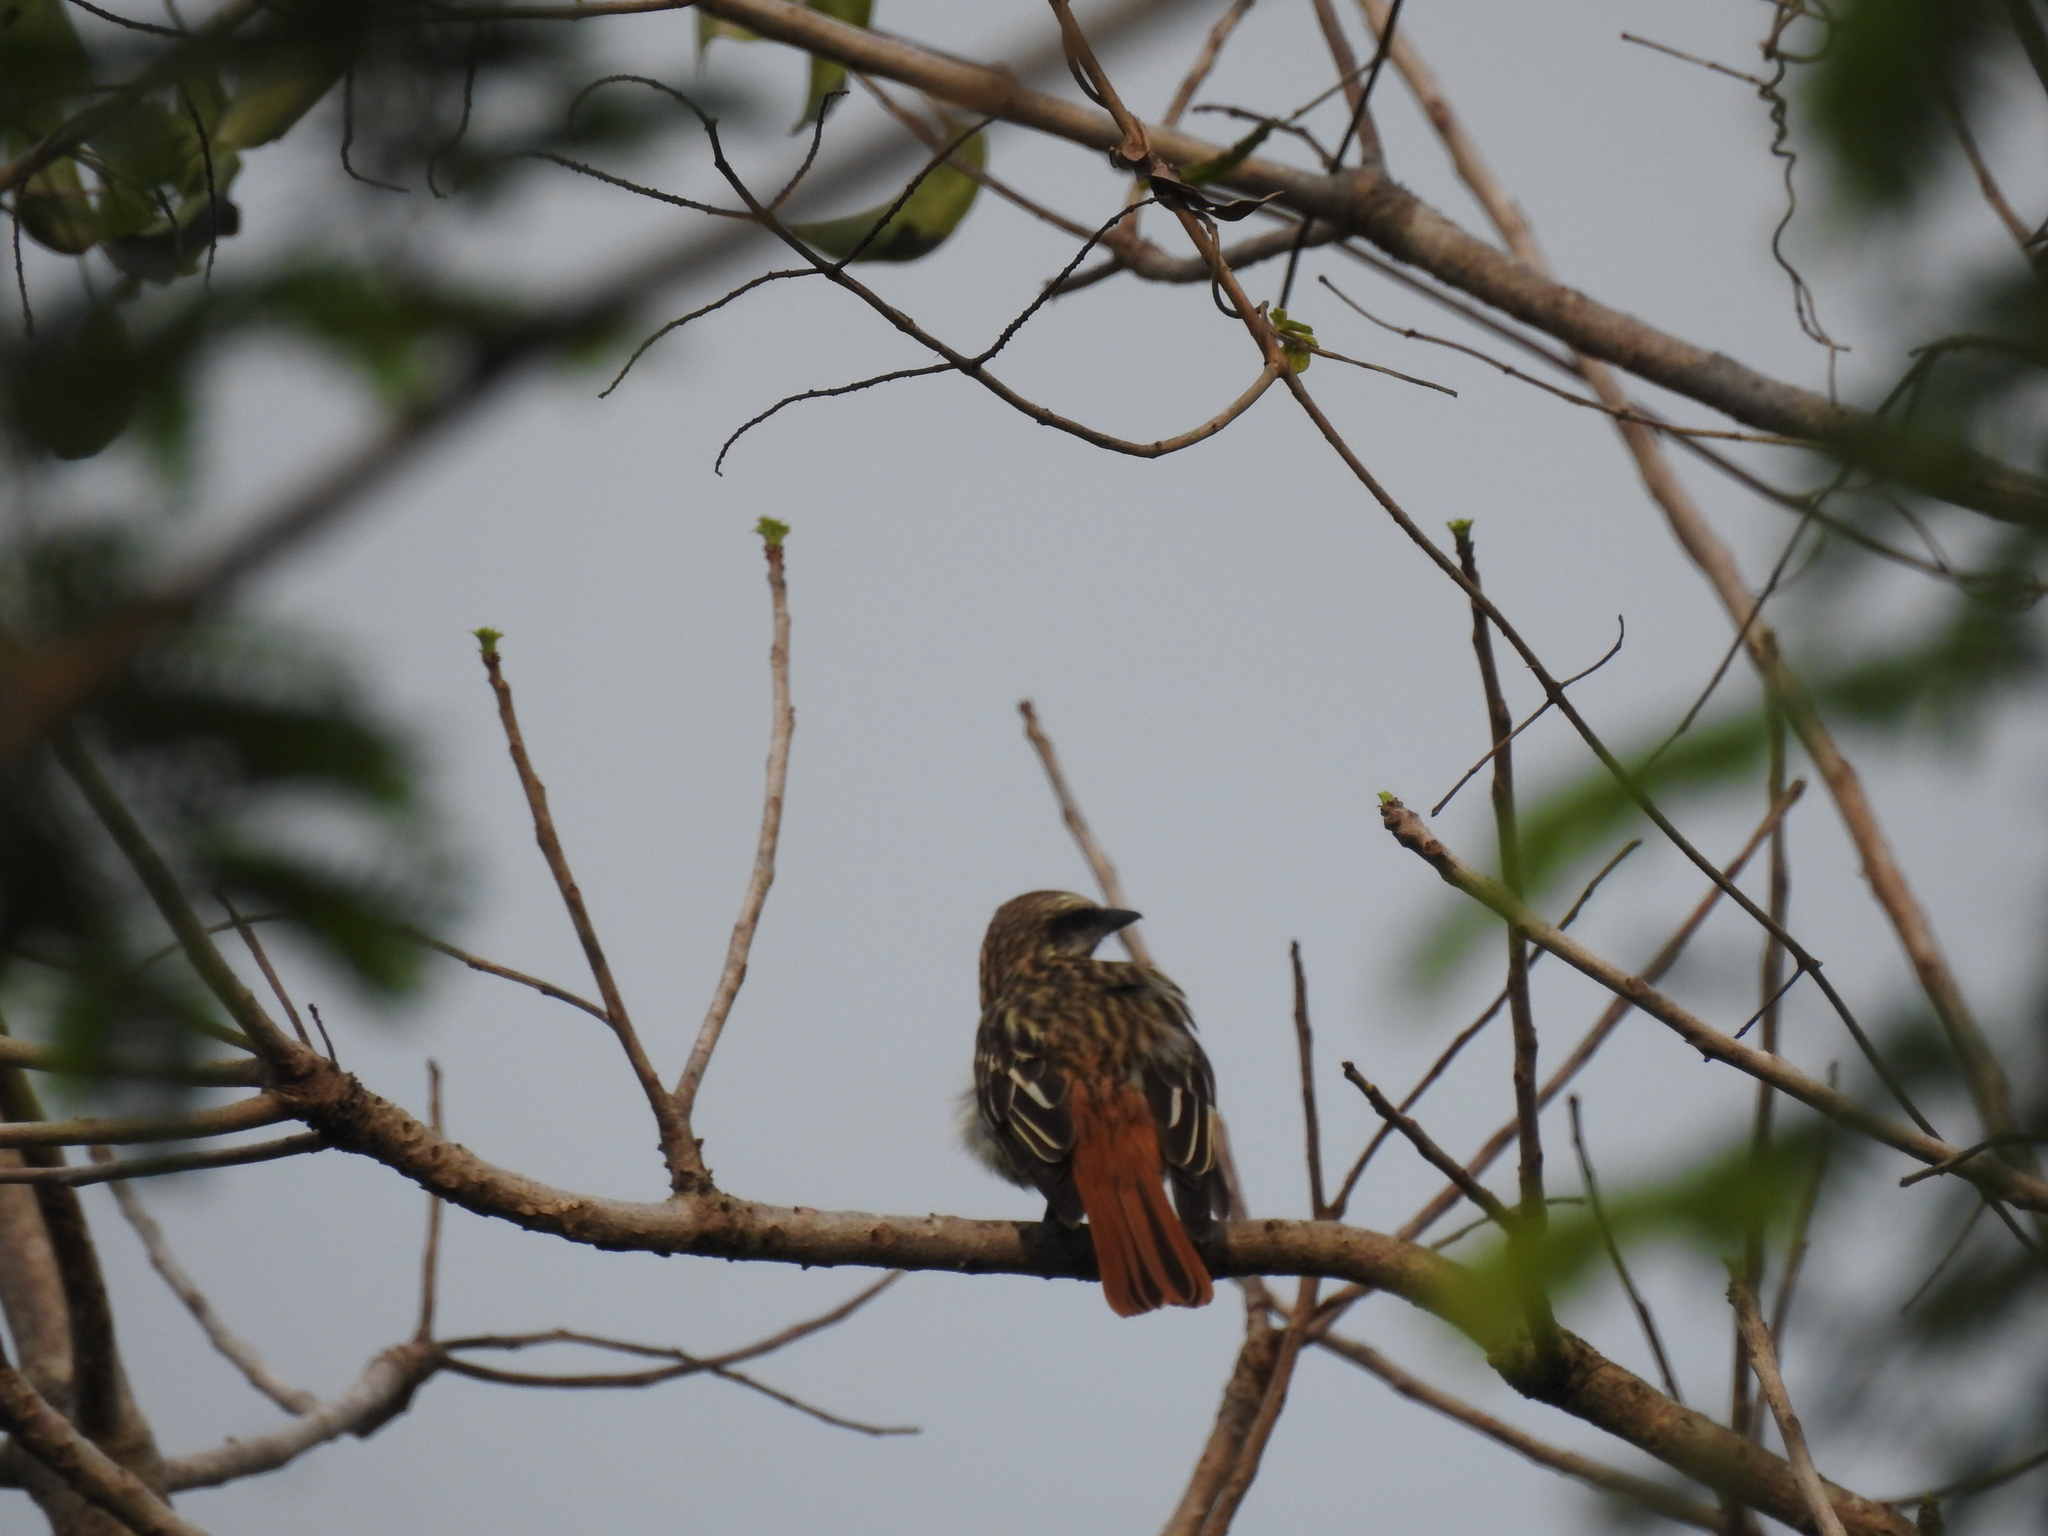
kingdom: Animalia
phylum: Chordata
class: Aves
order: Passeriformes
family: Tyrannidae
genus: Myiodynastes
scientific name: Myiodynastes luteiventris
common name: Sulphur-bellied flycatcher
